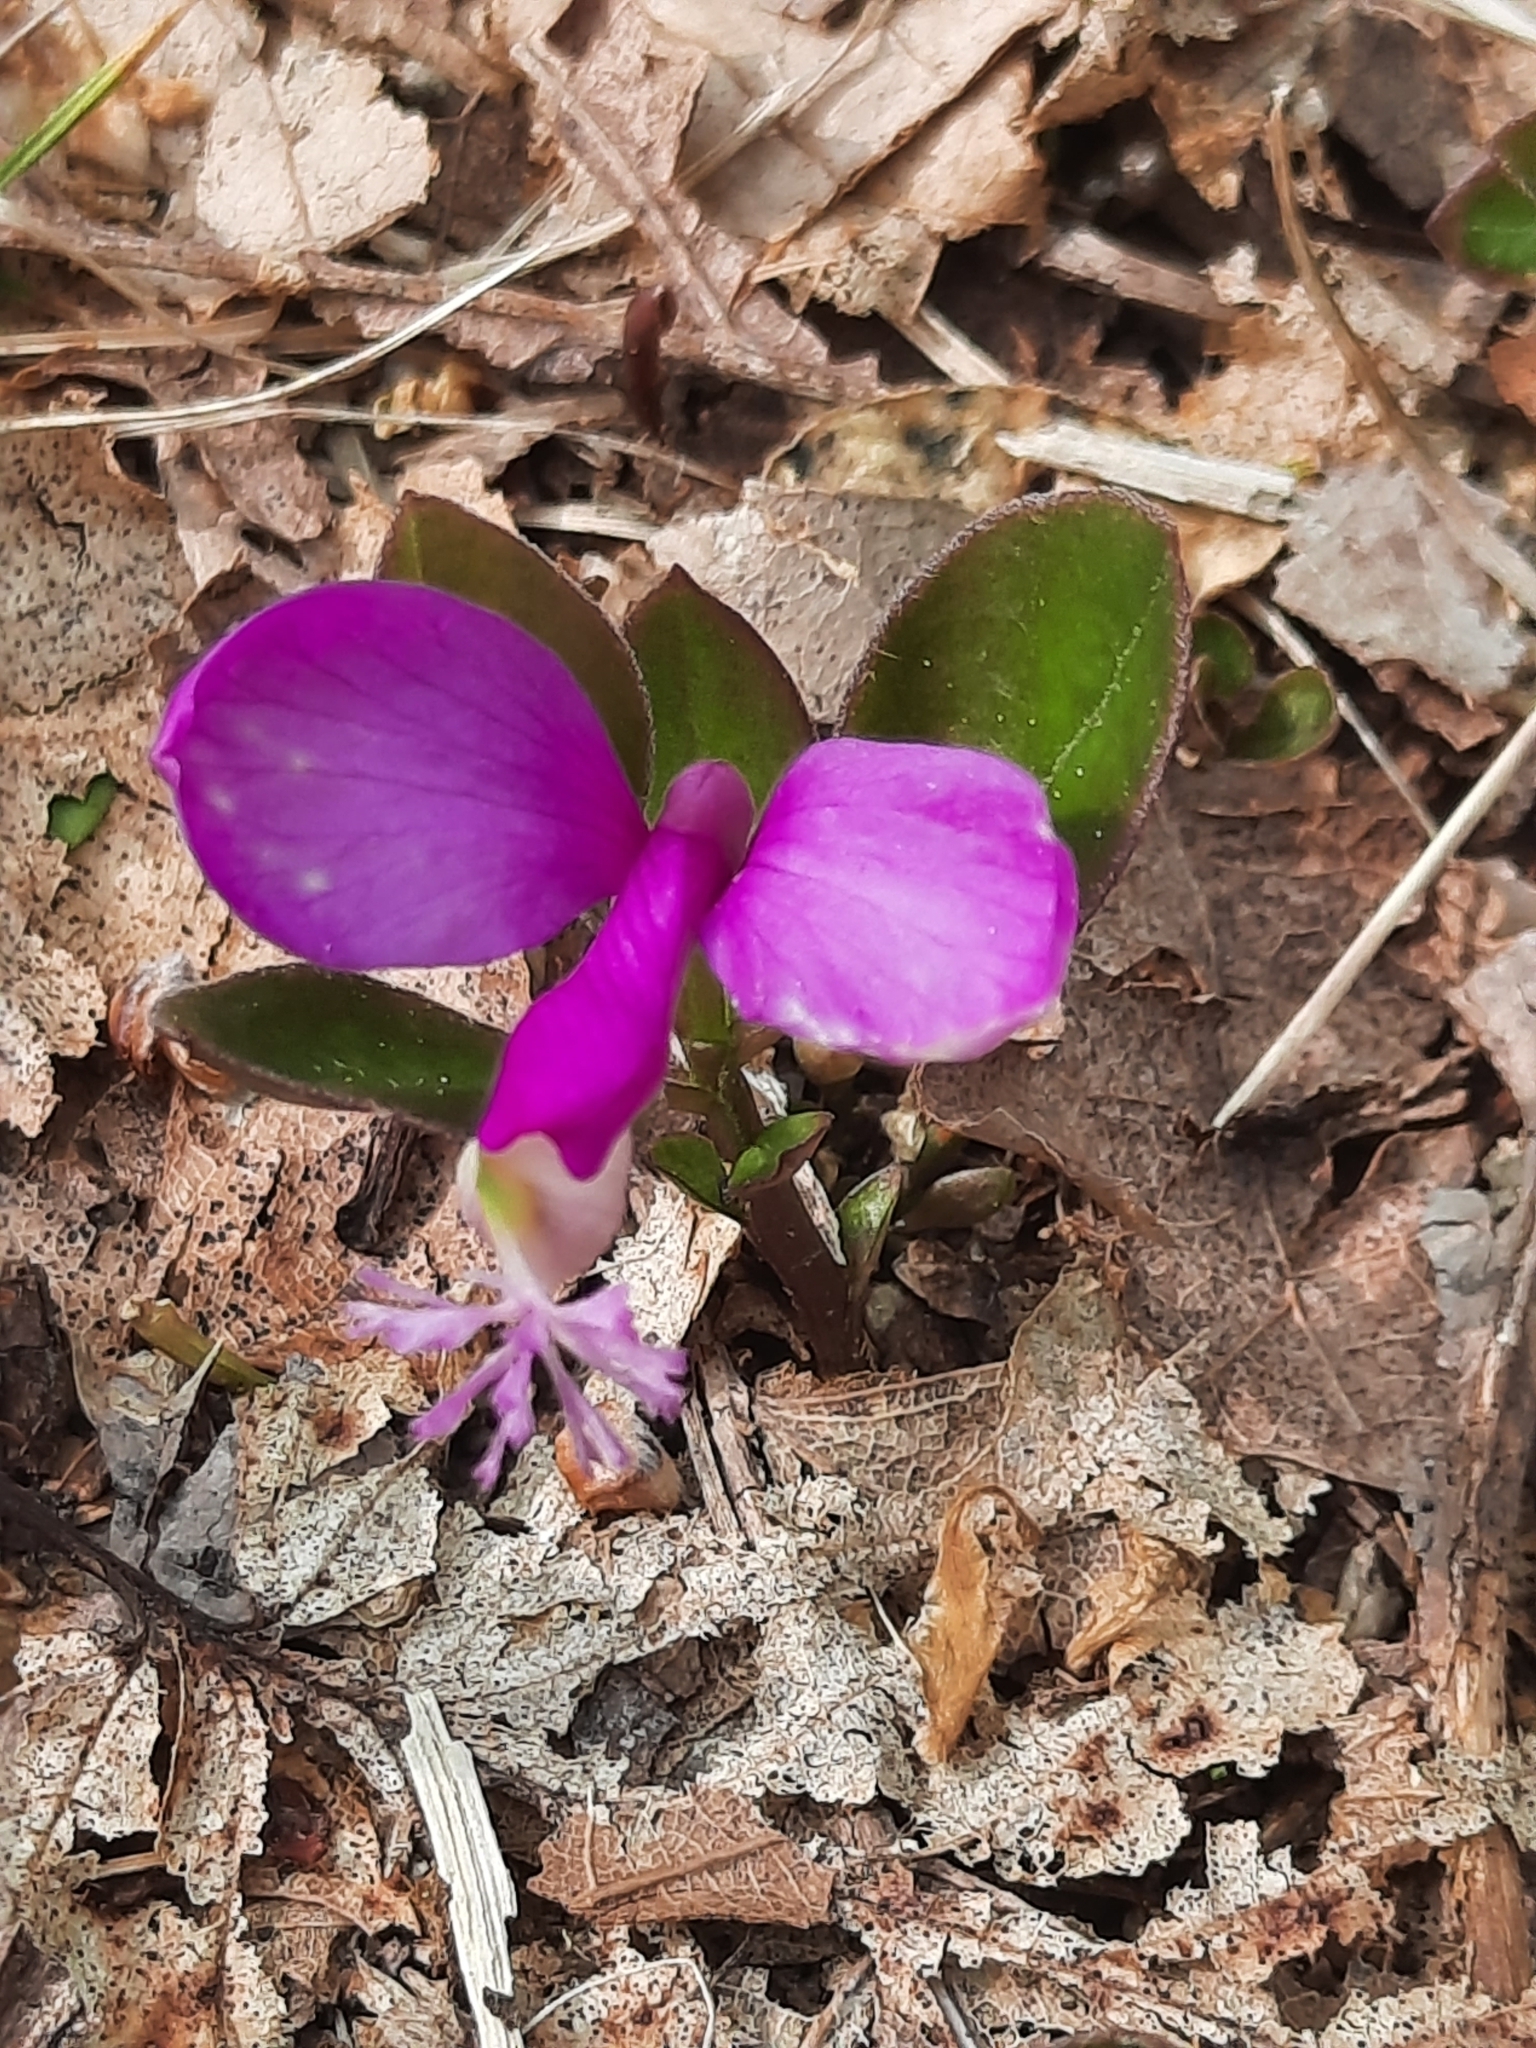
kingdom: Plantae
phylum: Tracheophyta
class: Magnoliopsida
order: Fabales
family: Polygalaceae
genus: Polygaloides
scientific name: Polygaloides paucifolia
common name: Bird-on-the-wing
